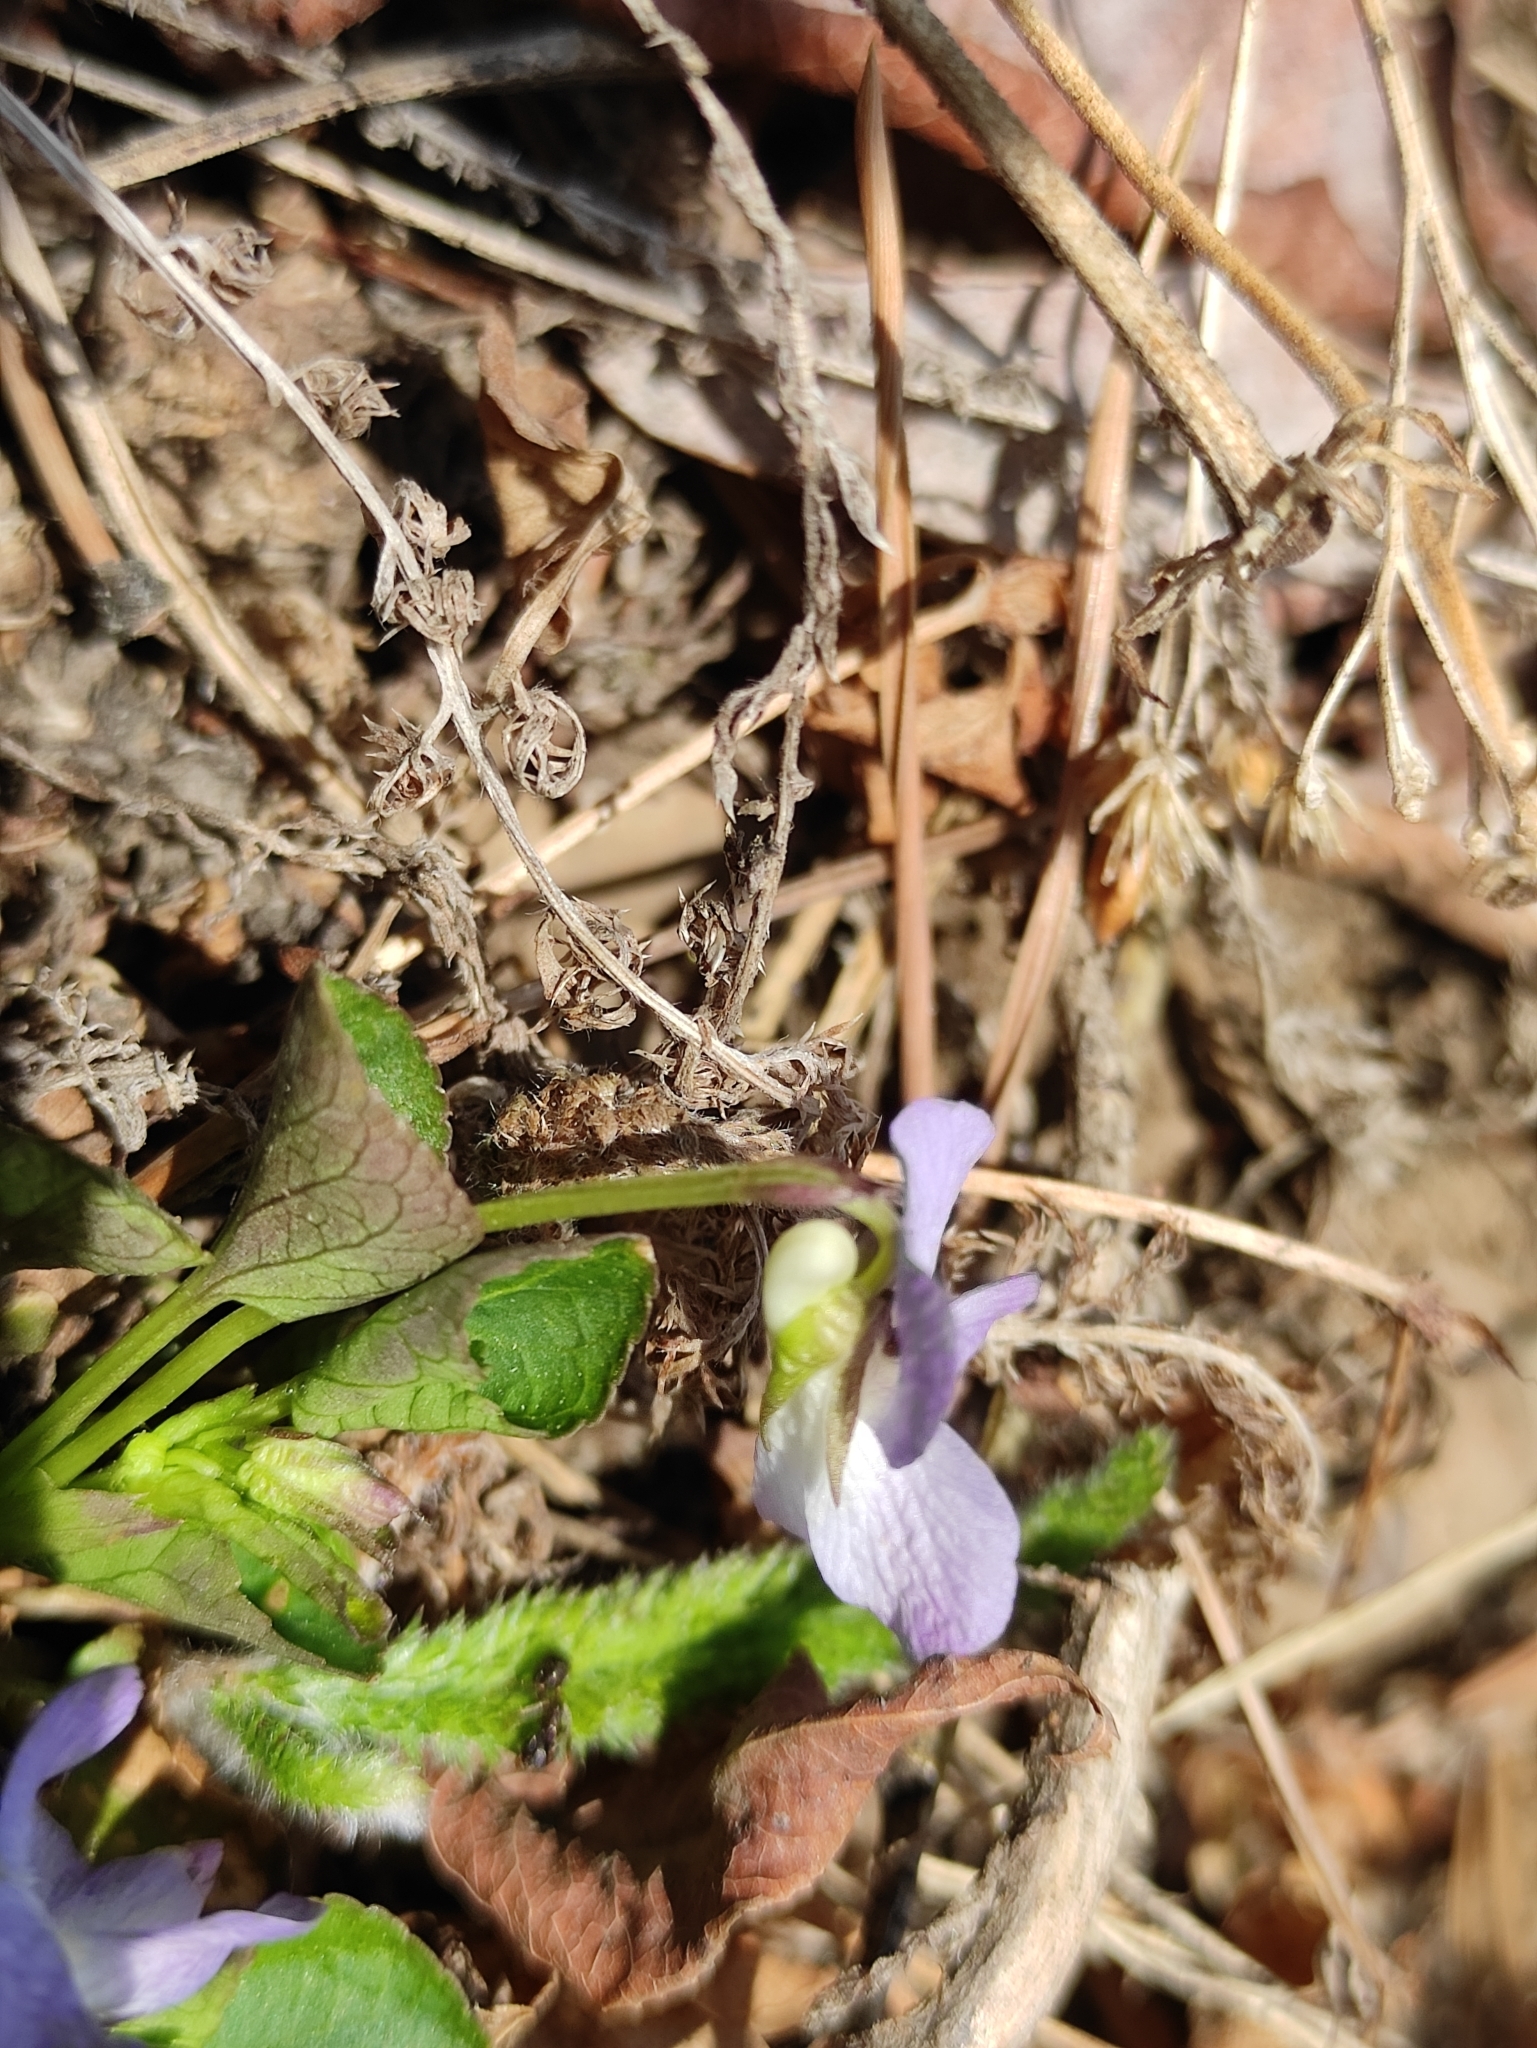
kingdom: Plantae
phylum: Tracheophyta
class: Magnoliopsida
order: Malpighiales
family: Violaceae
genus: Viola
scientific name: Viola sacchalinensis
